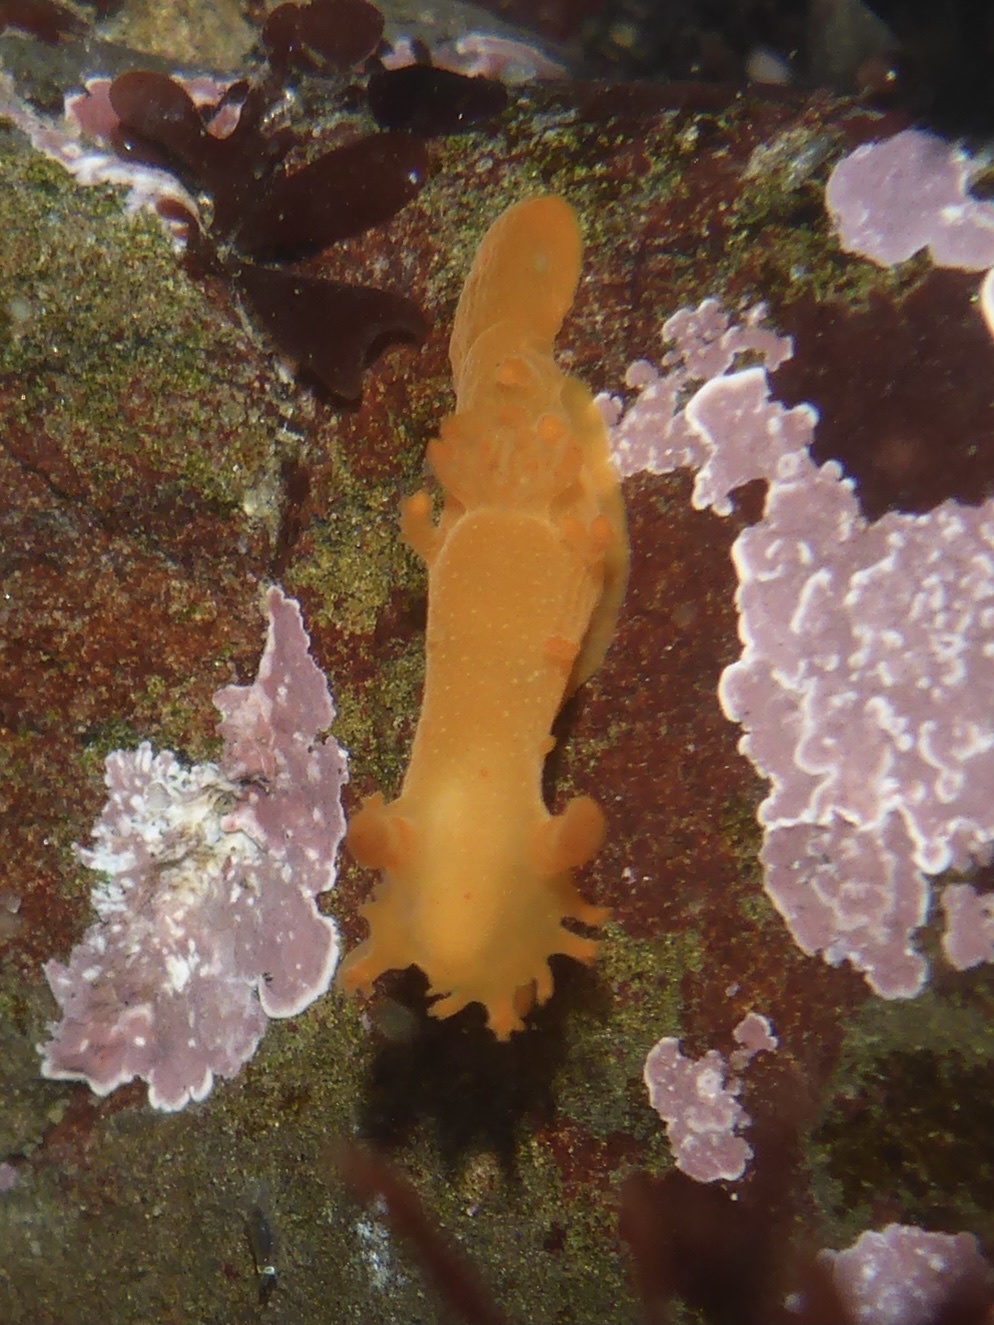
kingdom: Animalia
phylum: Mollusca
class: Gastropoda
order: Nudibranchia
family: Polyceridae
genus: Triopha
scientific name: Triopha maculata
